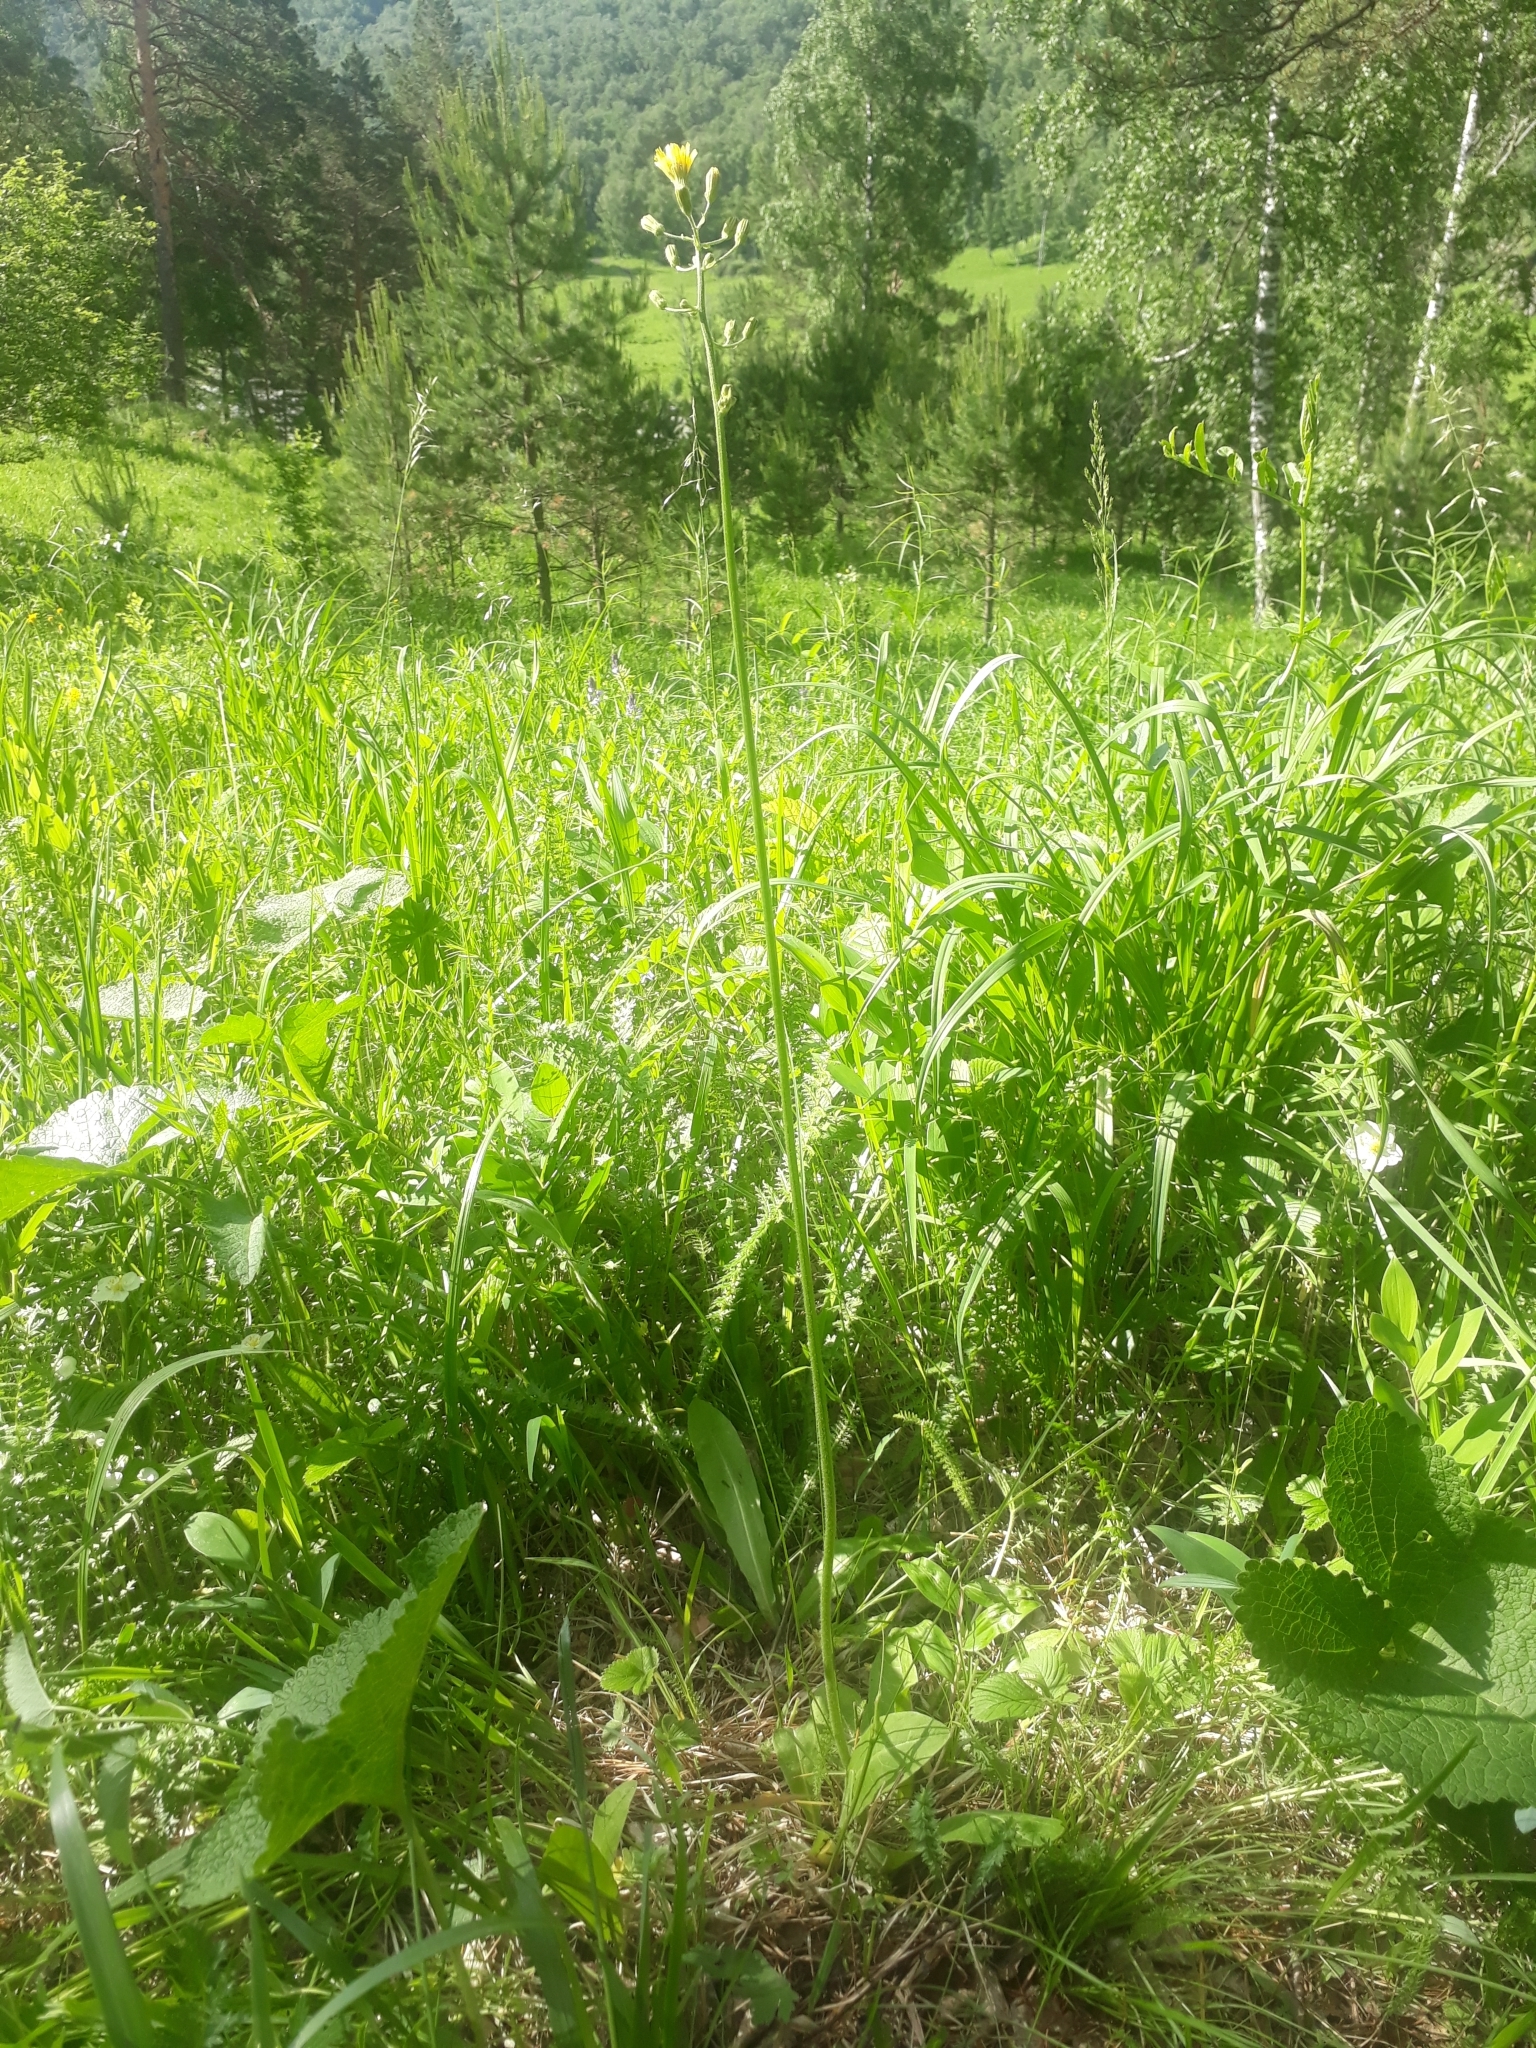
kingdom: Plantae
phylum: Tracheophyta
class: Magnoliopsida
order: Asterales
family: Asteraceae
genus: Crepis
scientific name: Crepis praemorsa
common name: Leafless hawk's-beard
